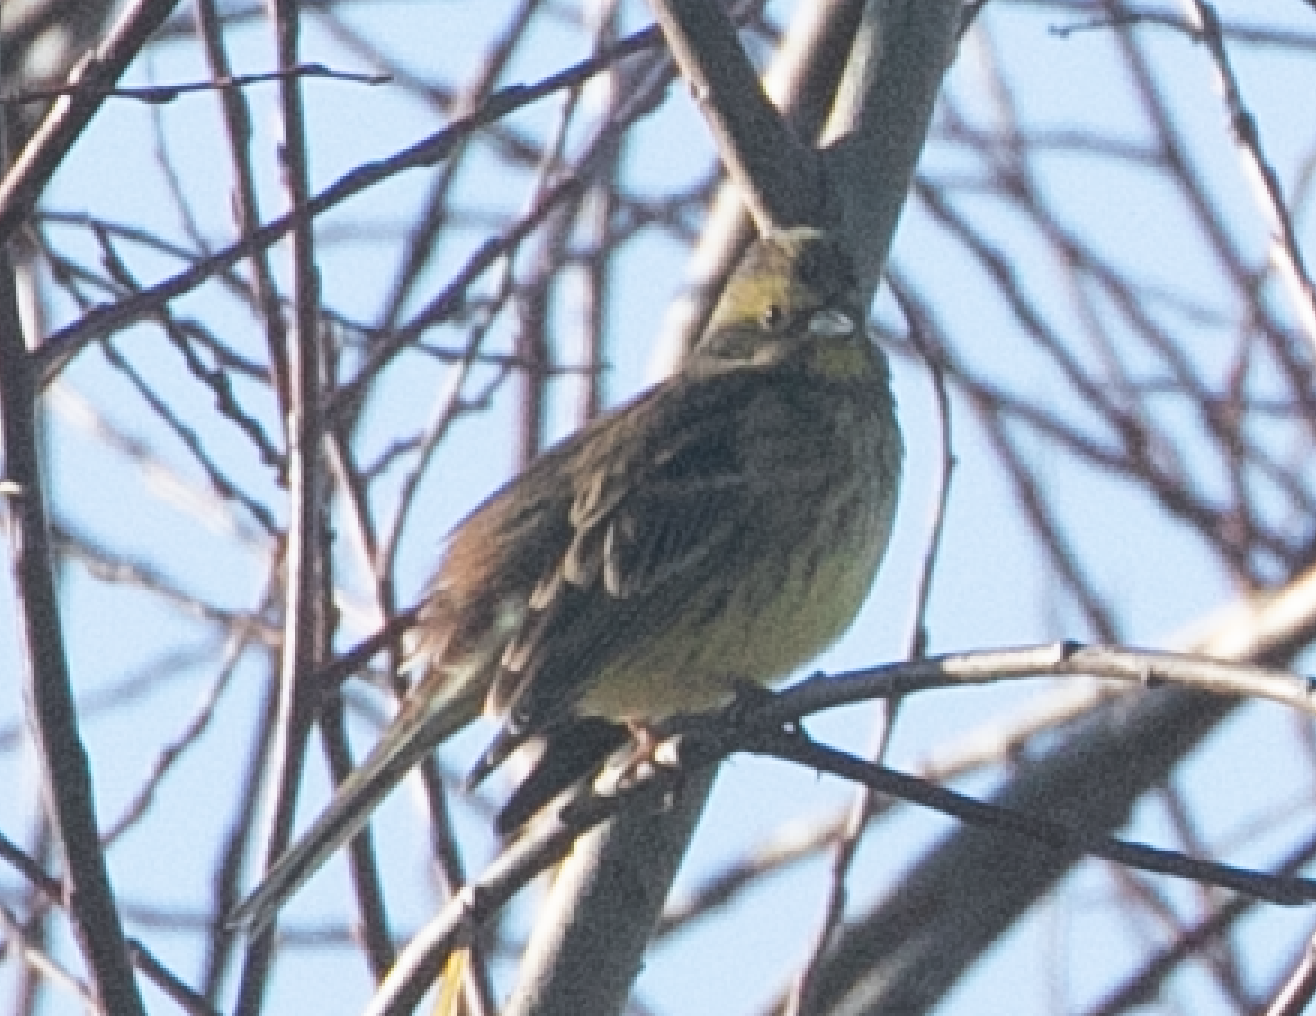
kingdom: Animalia
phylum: Chordata
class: Aves
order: Passeriformes
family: Emberizidae
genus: Emberiza
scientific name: Emberiza citrinella
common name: Yellowhammer
